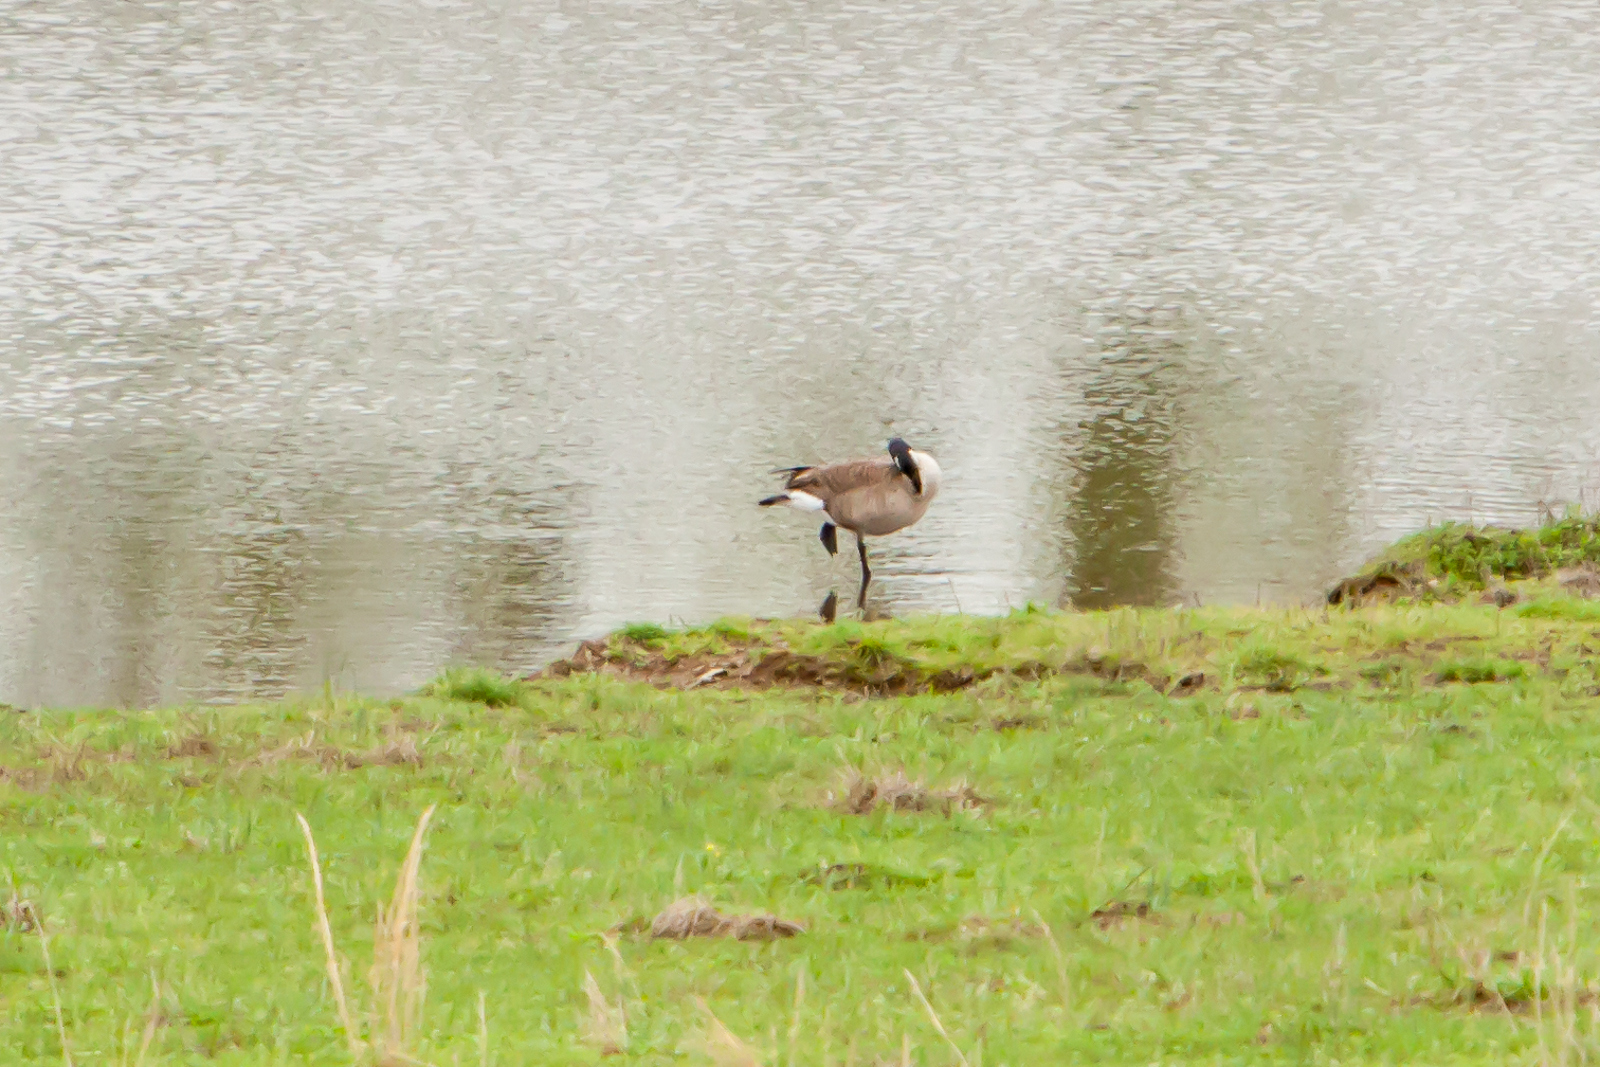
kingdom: Animalia
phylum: Chordata
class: Aves
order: Anseriformes
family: Anatidae
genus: Branta
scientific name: Branta canadensis
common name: Canada goose
